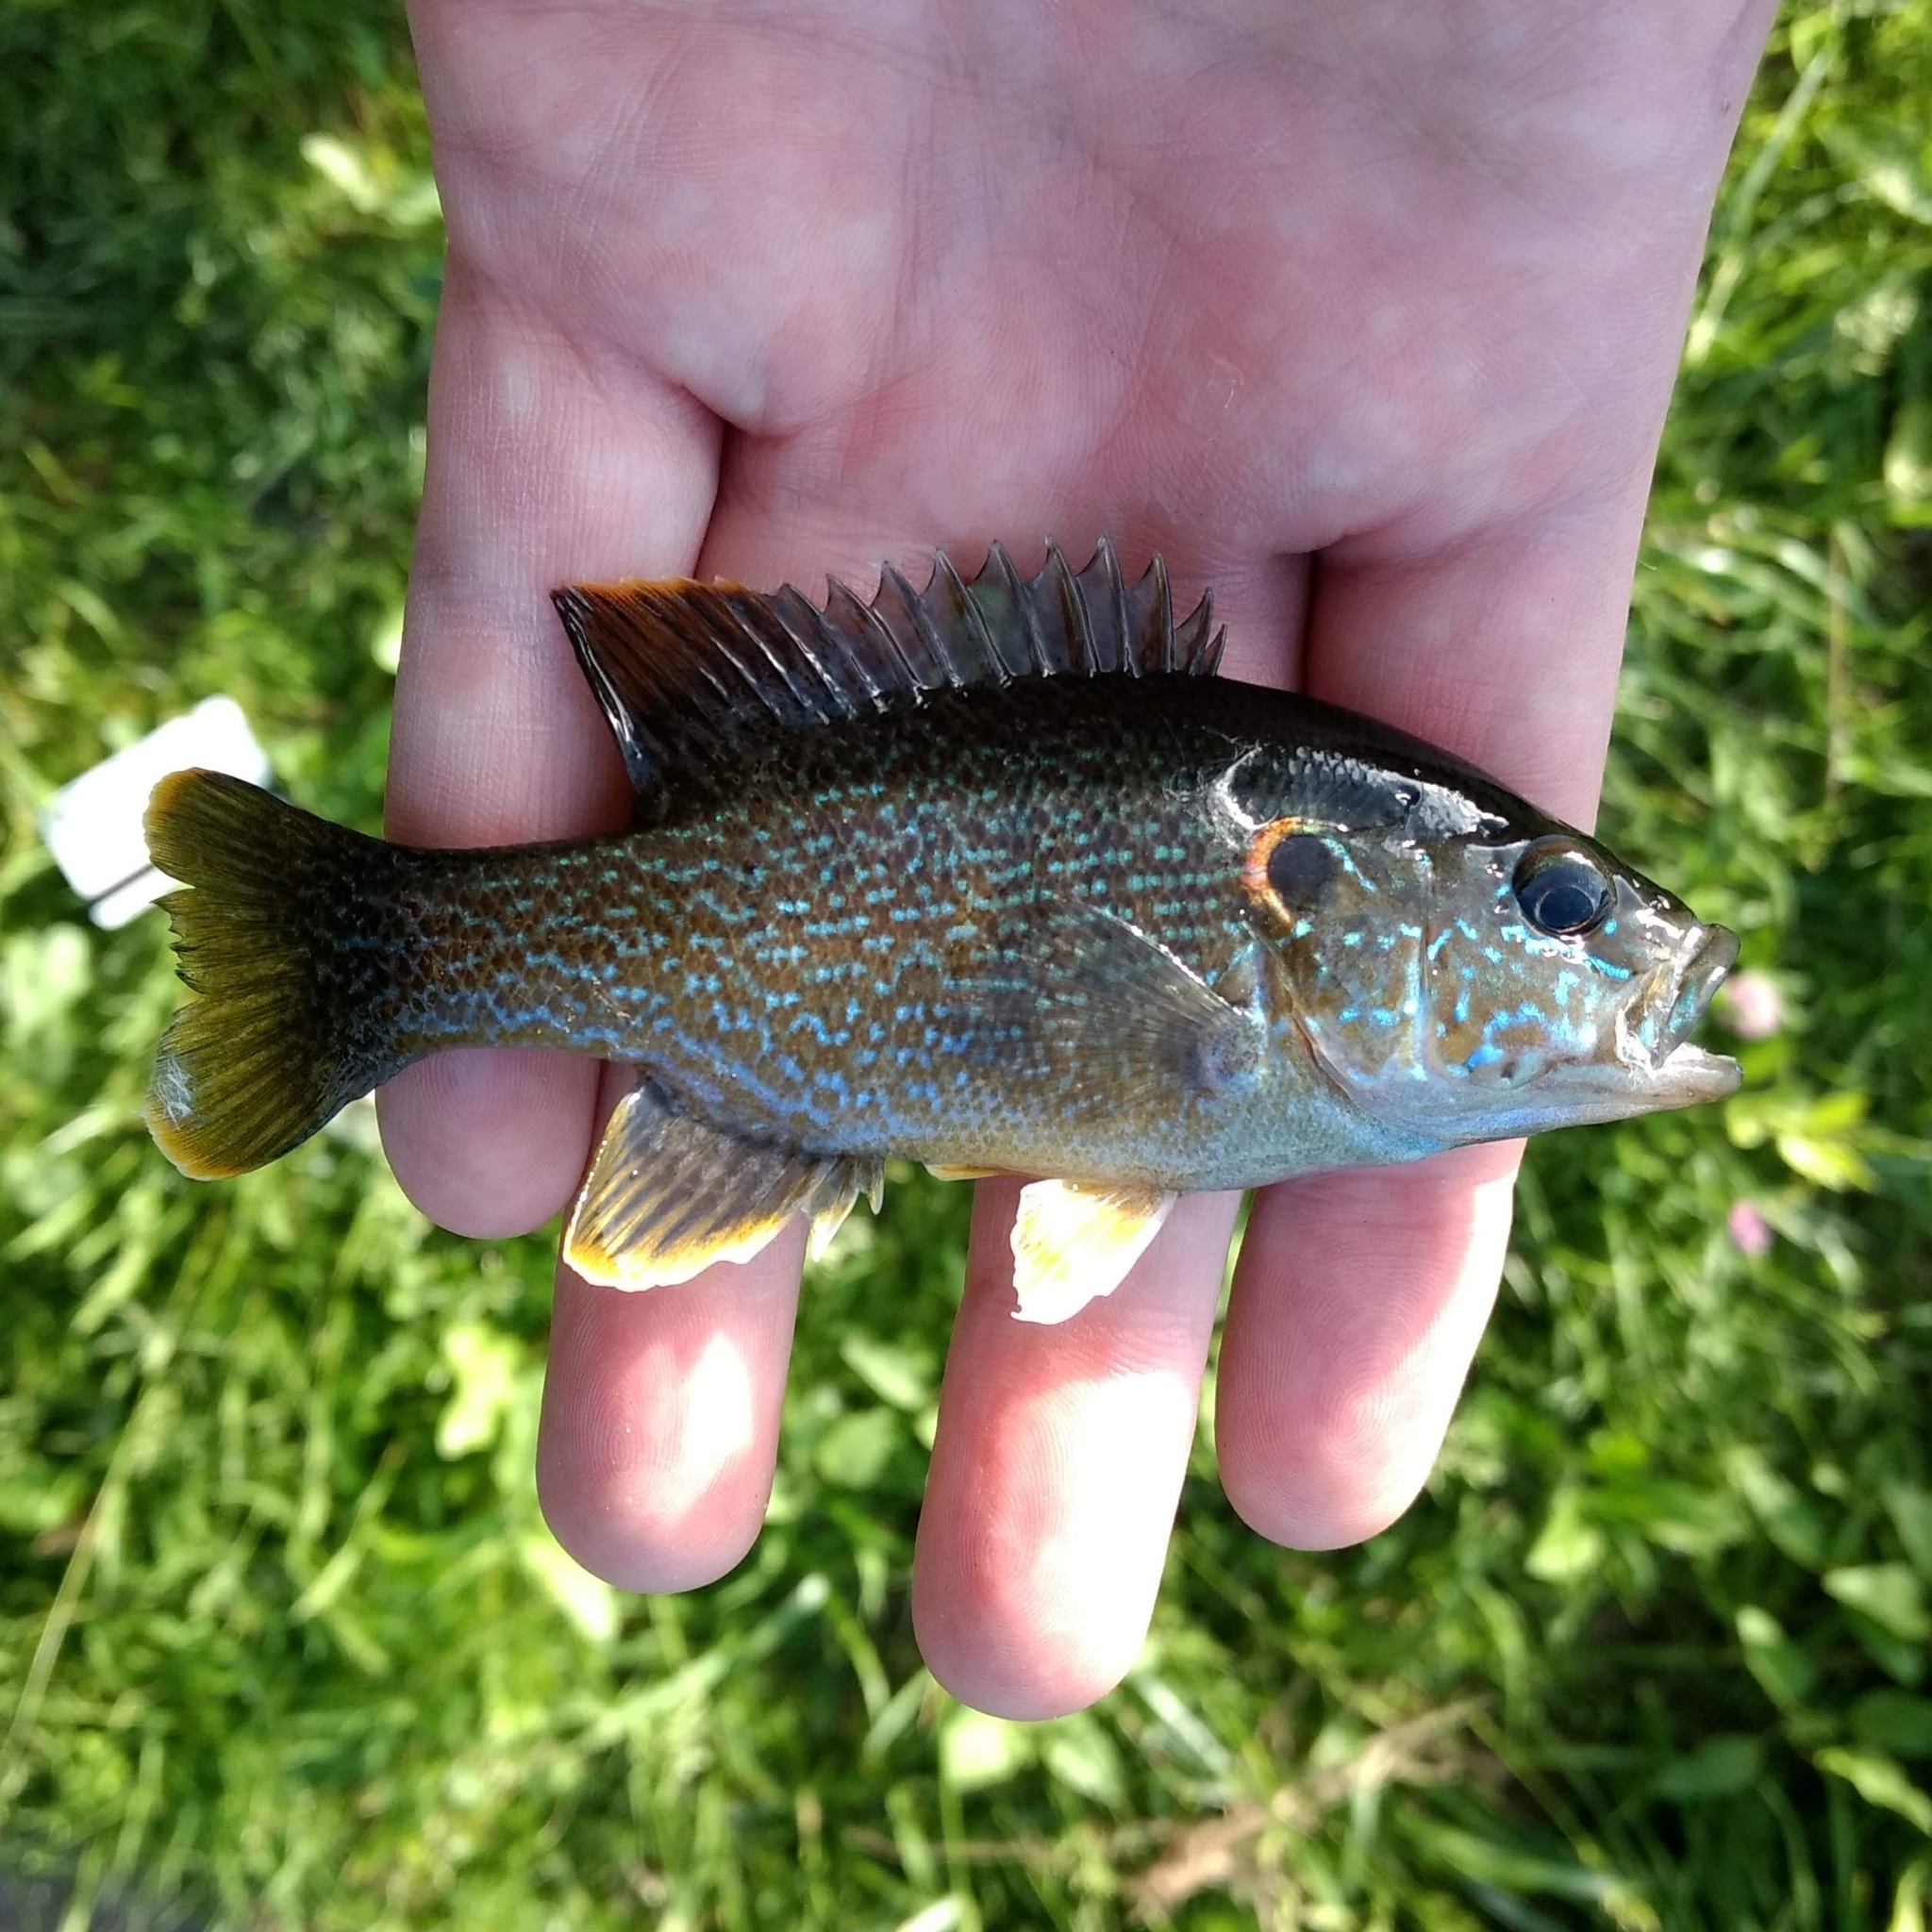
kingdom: Animalia
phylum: Chordata
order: Perciformes
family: Centrarchidae
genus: Lepomis
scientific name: Lepomis cyanellus
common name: Green sunfish
